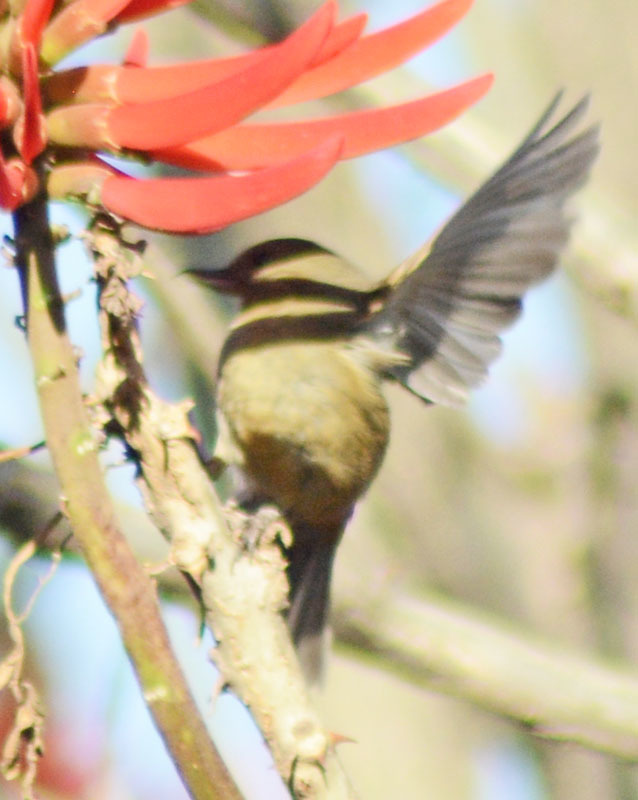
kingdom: Animalia
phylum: Chordata
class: Aves
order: Passeriformes
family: Thraupidae
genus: Diglossa
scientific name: Diglossa baritula
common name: Cinnamon-bellied flowerpiercer
